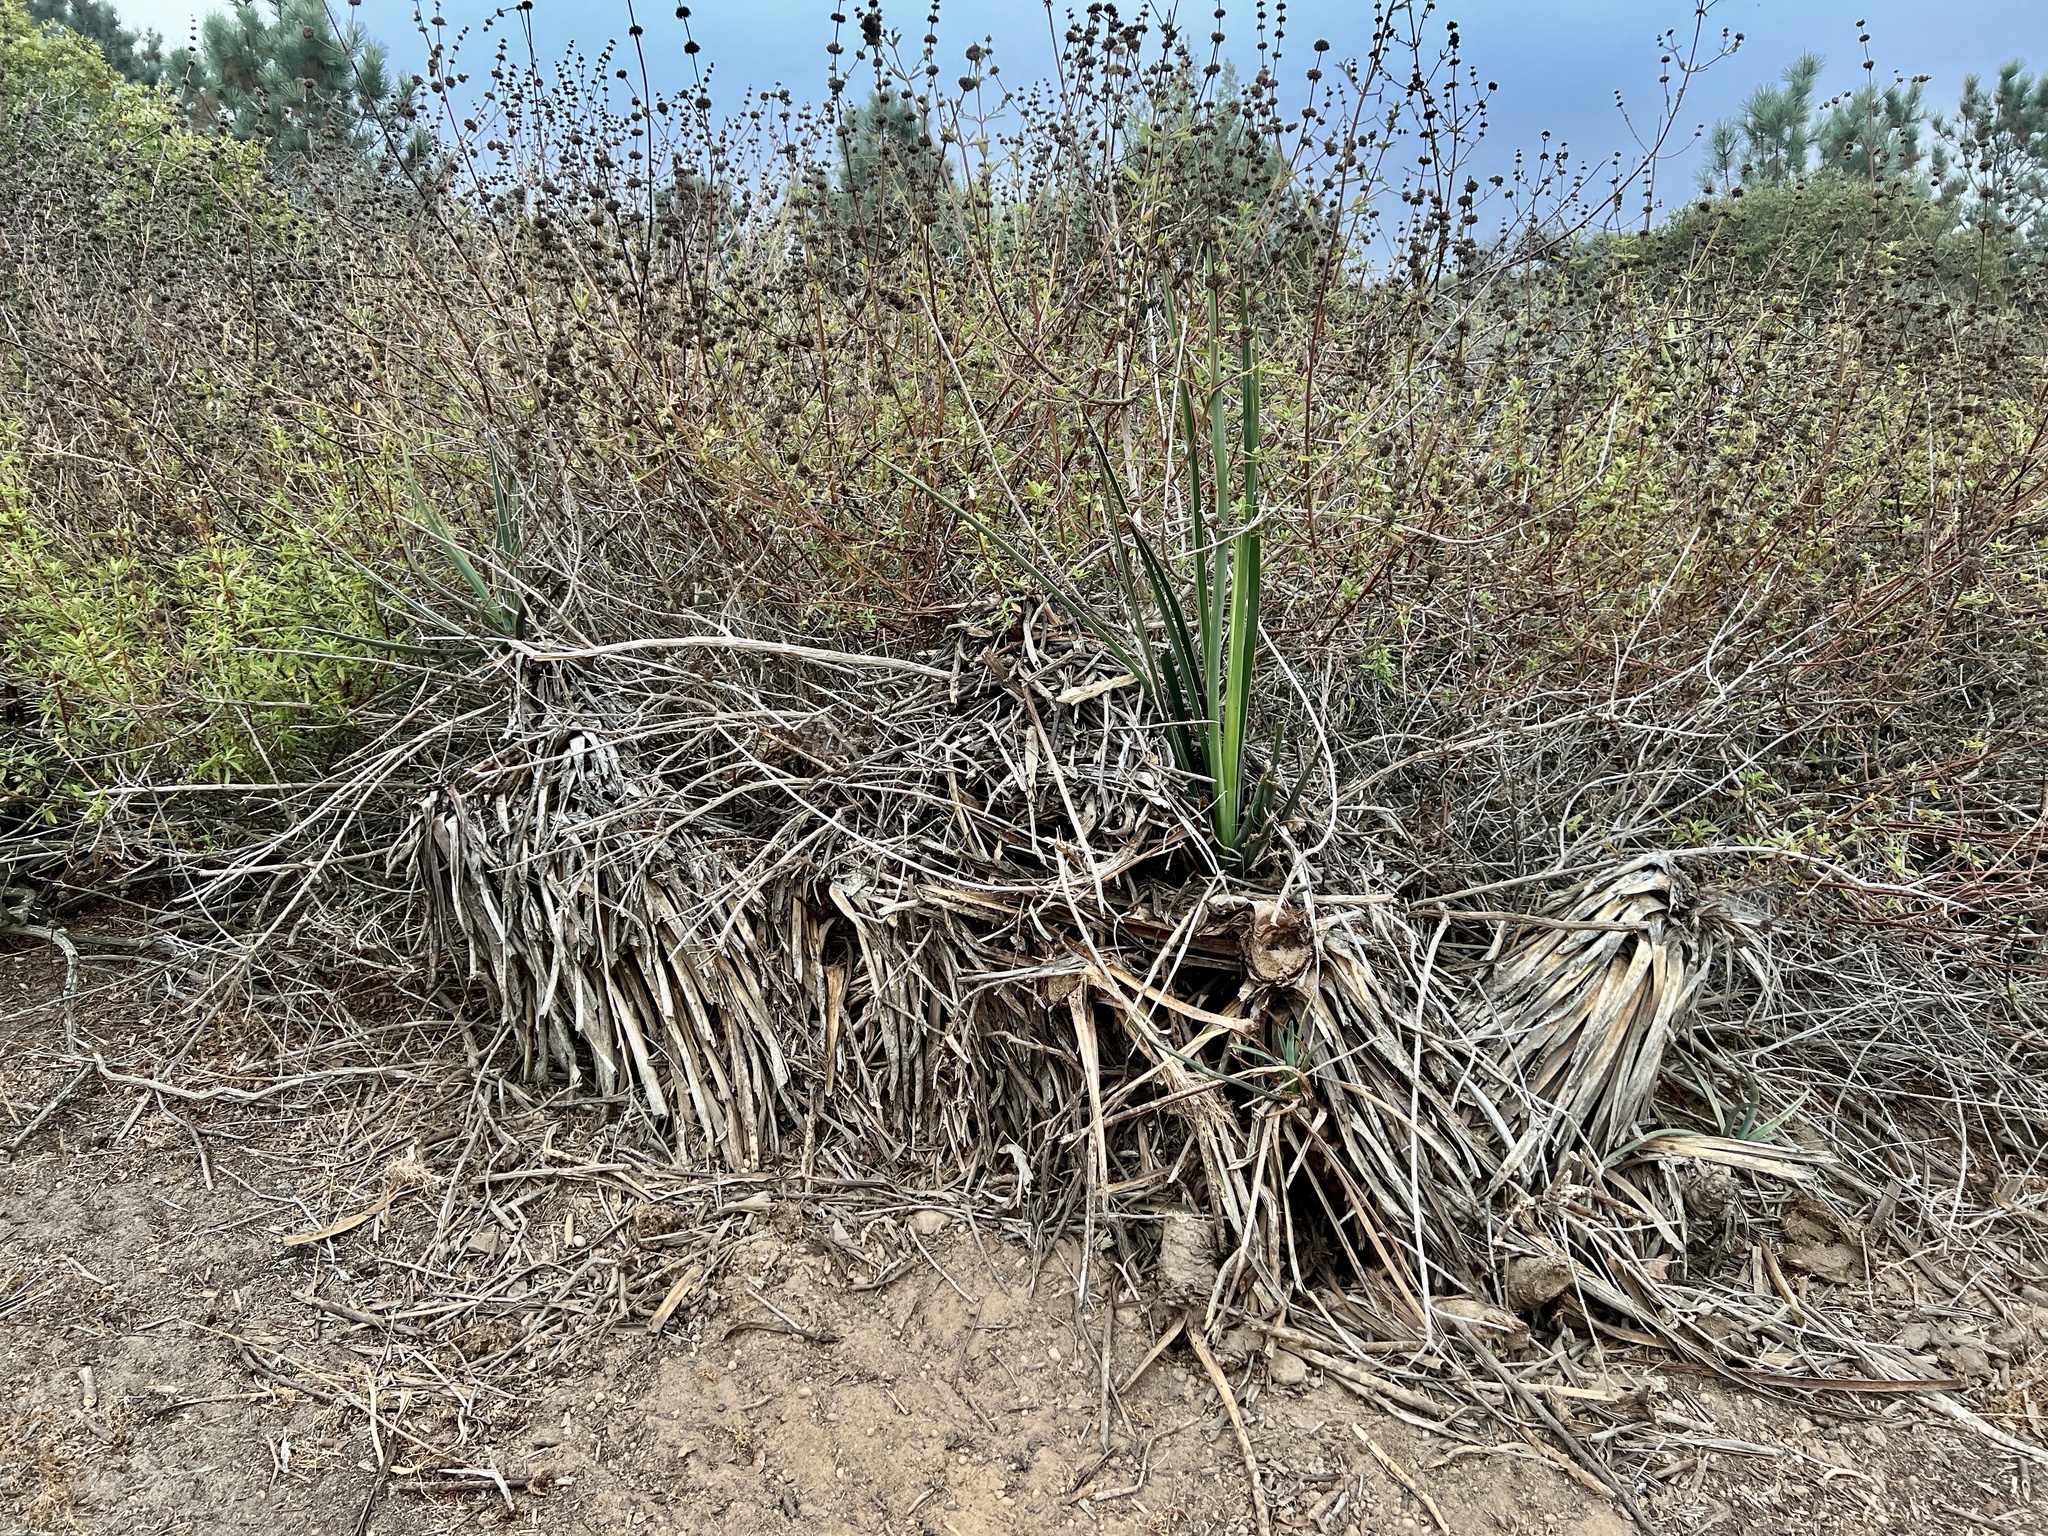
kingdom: Plantae
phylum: Tracheophyta
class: Liliopsida
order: Asparagales
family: Asparagaceae
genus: Yucca
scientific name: Yucca schidigera
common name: Mojave yucca
